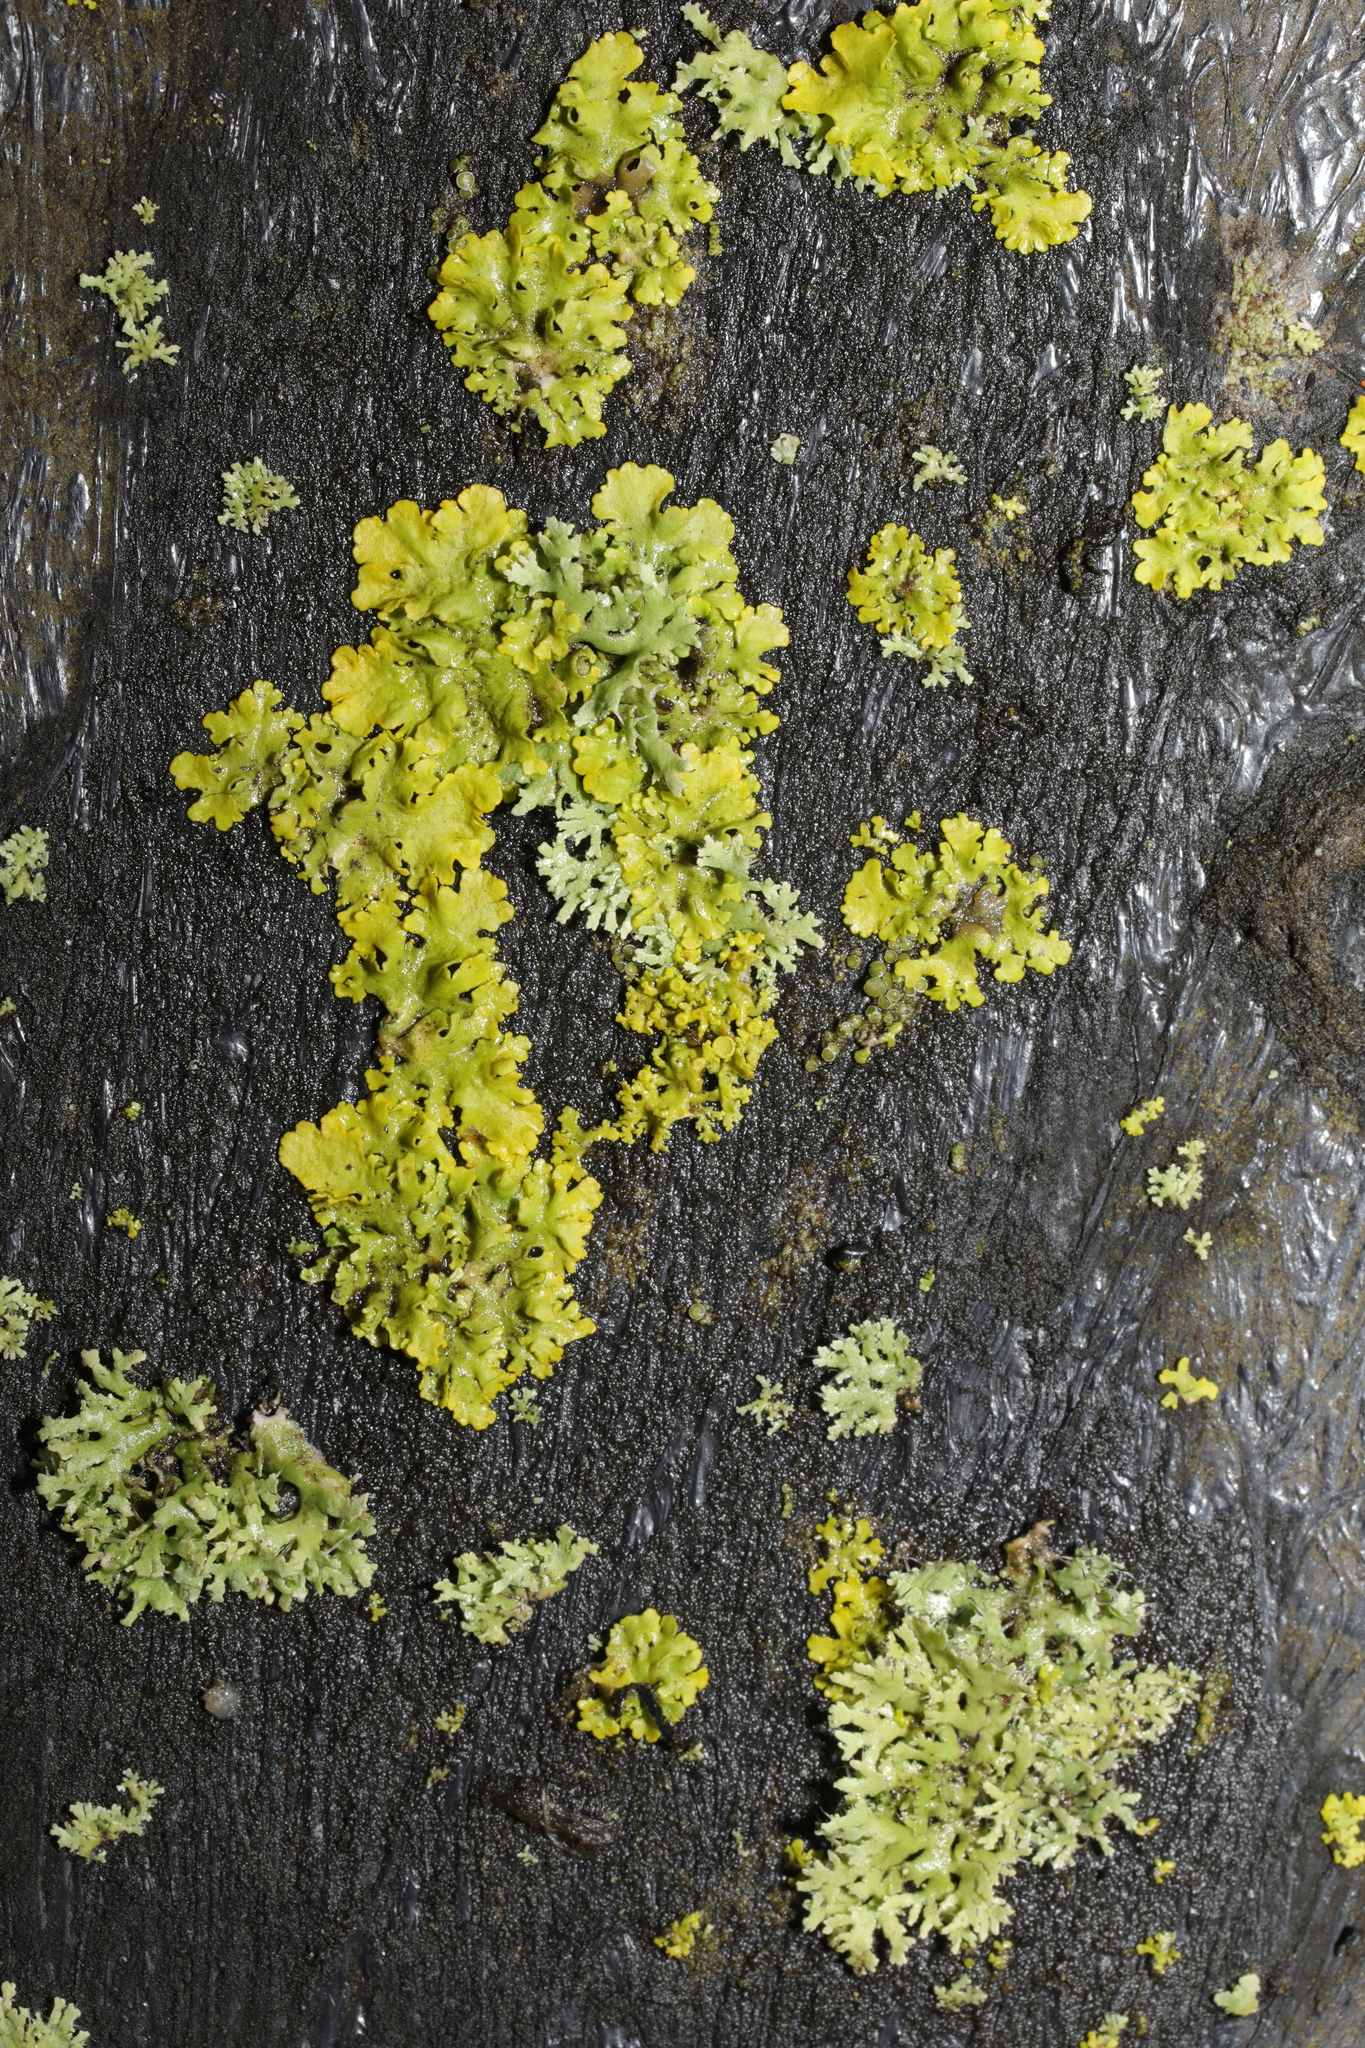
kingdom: Fungi
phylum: Ascomycota
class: Lecanoromycetes
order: Teloschistales
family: Teloschistaceae
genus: Xanthoria
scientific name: Xanthoria parietina
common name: Common orange lichen
